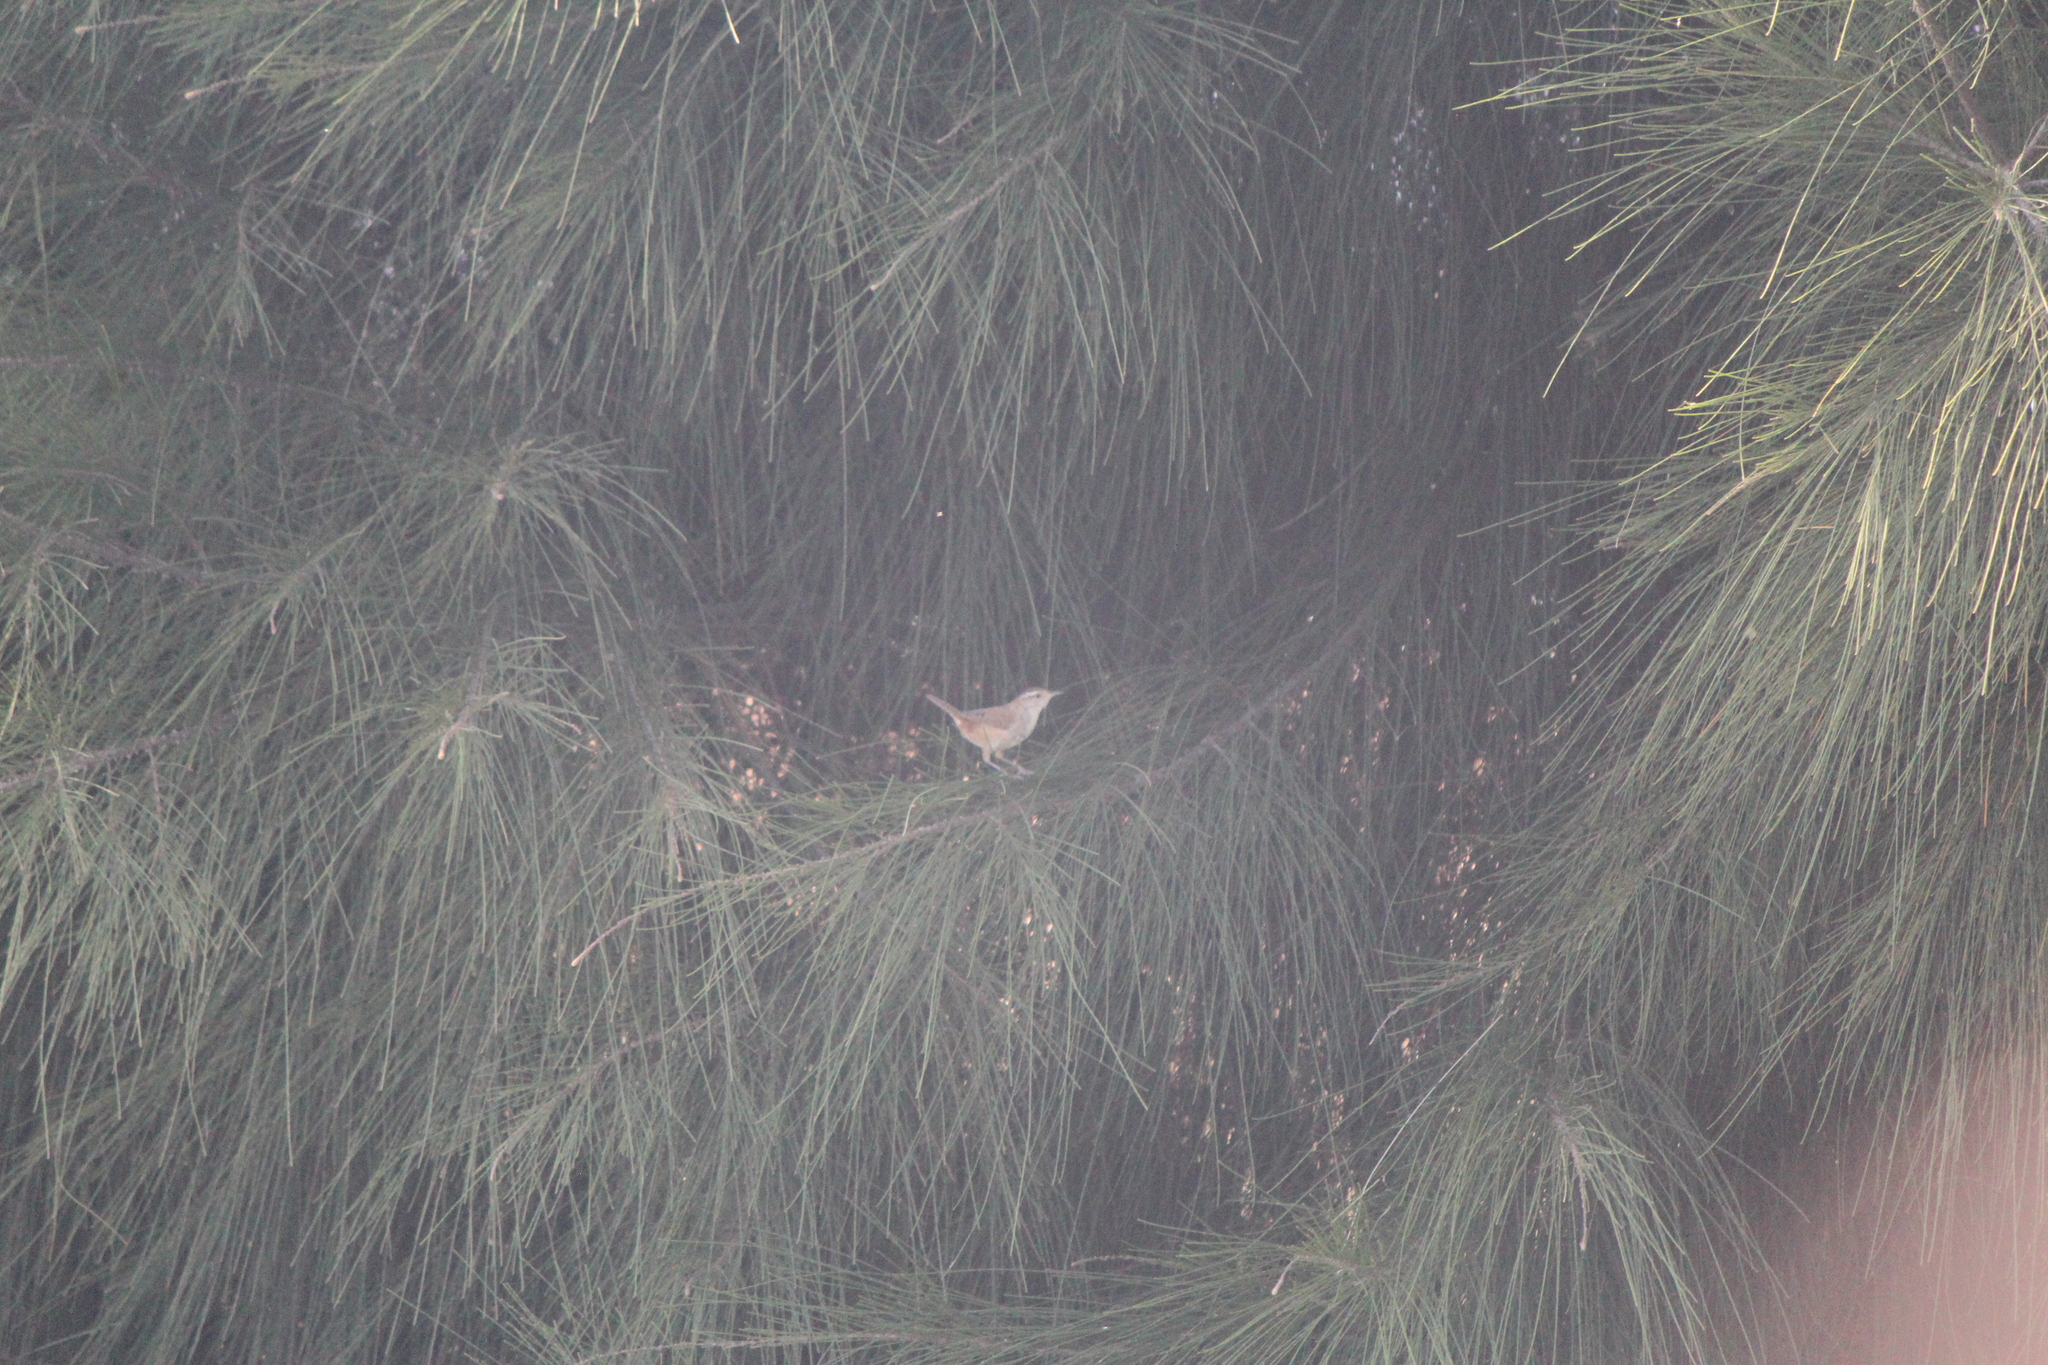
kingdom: Animalia
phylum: Chordata
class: Aves
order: Passeriformes
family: Troglodytidae
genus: Cistothorus
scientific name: Cistothorus palustris
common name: Marsh wren
